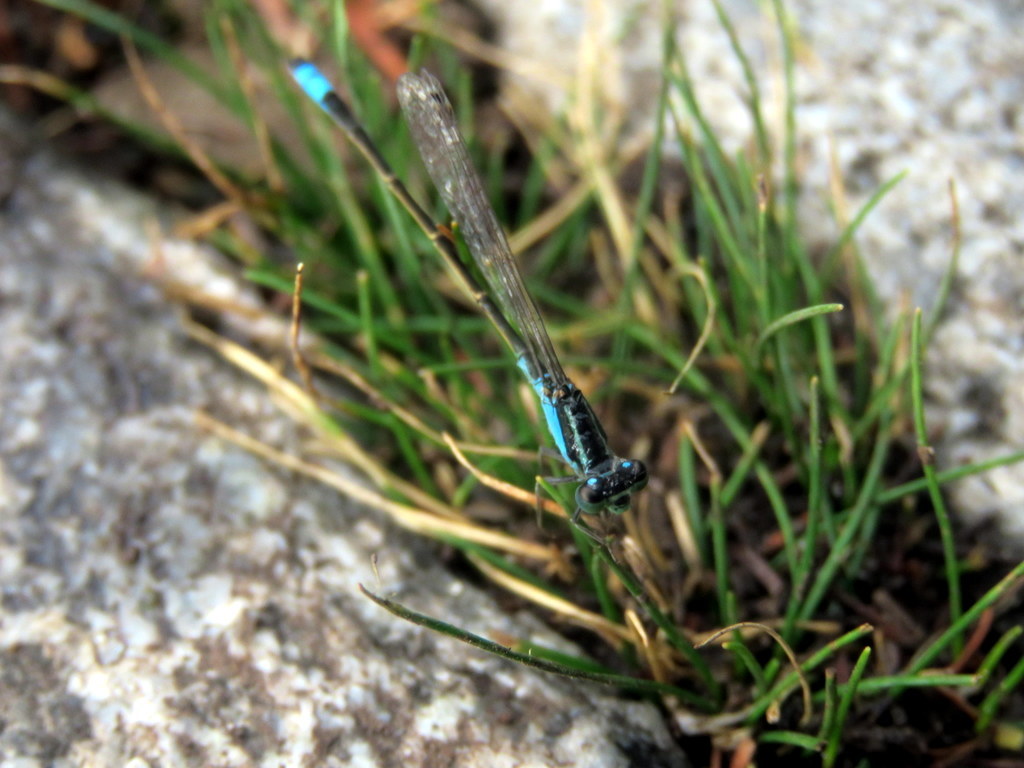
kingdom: Animalia
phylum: Arthropoda
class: Insecta
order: Odonata
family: Coenagrionidae
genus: Ischnura
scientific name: Ischnura fluviatilis
